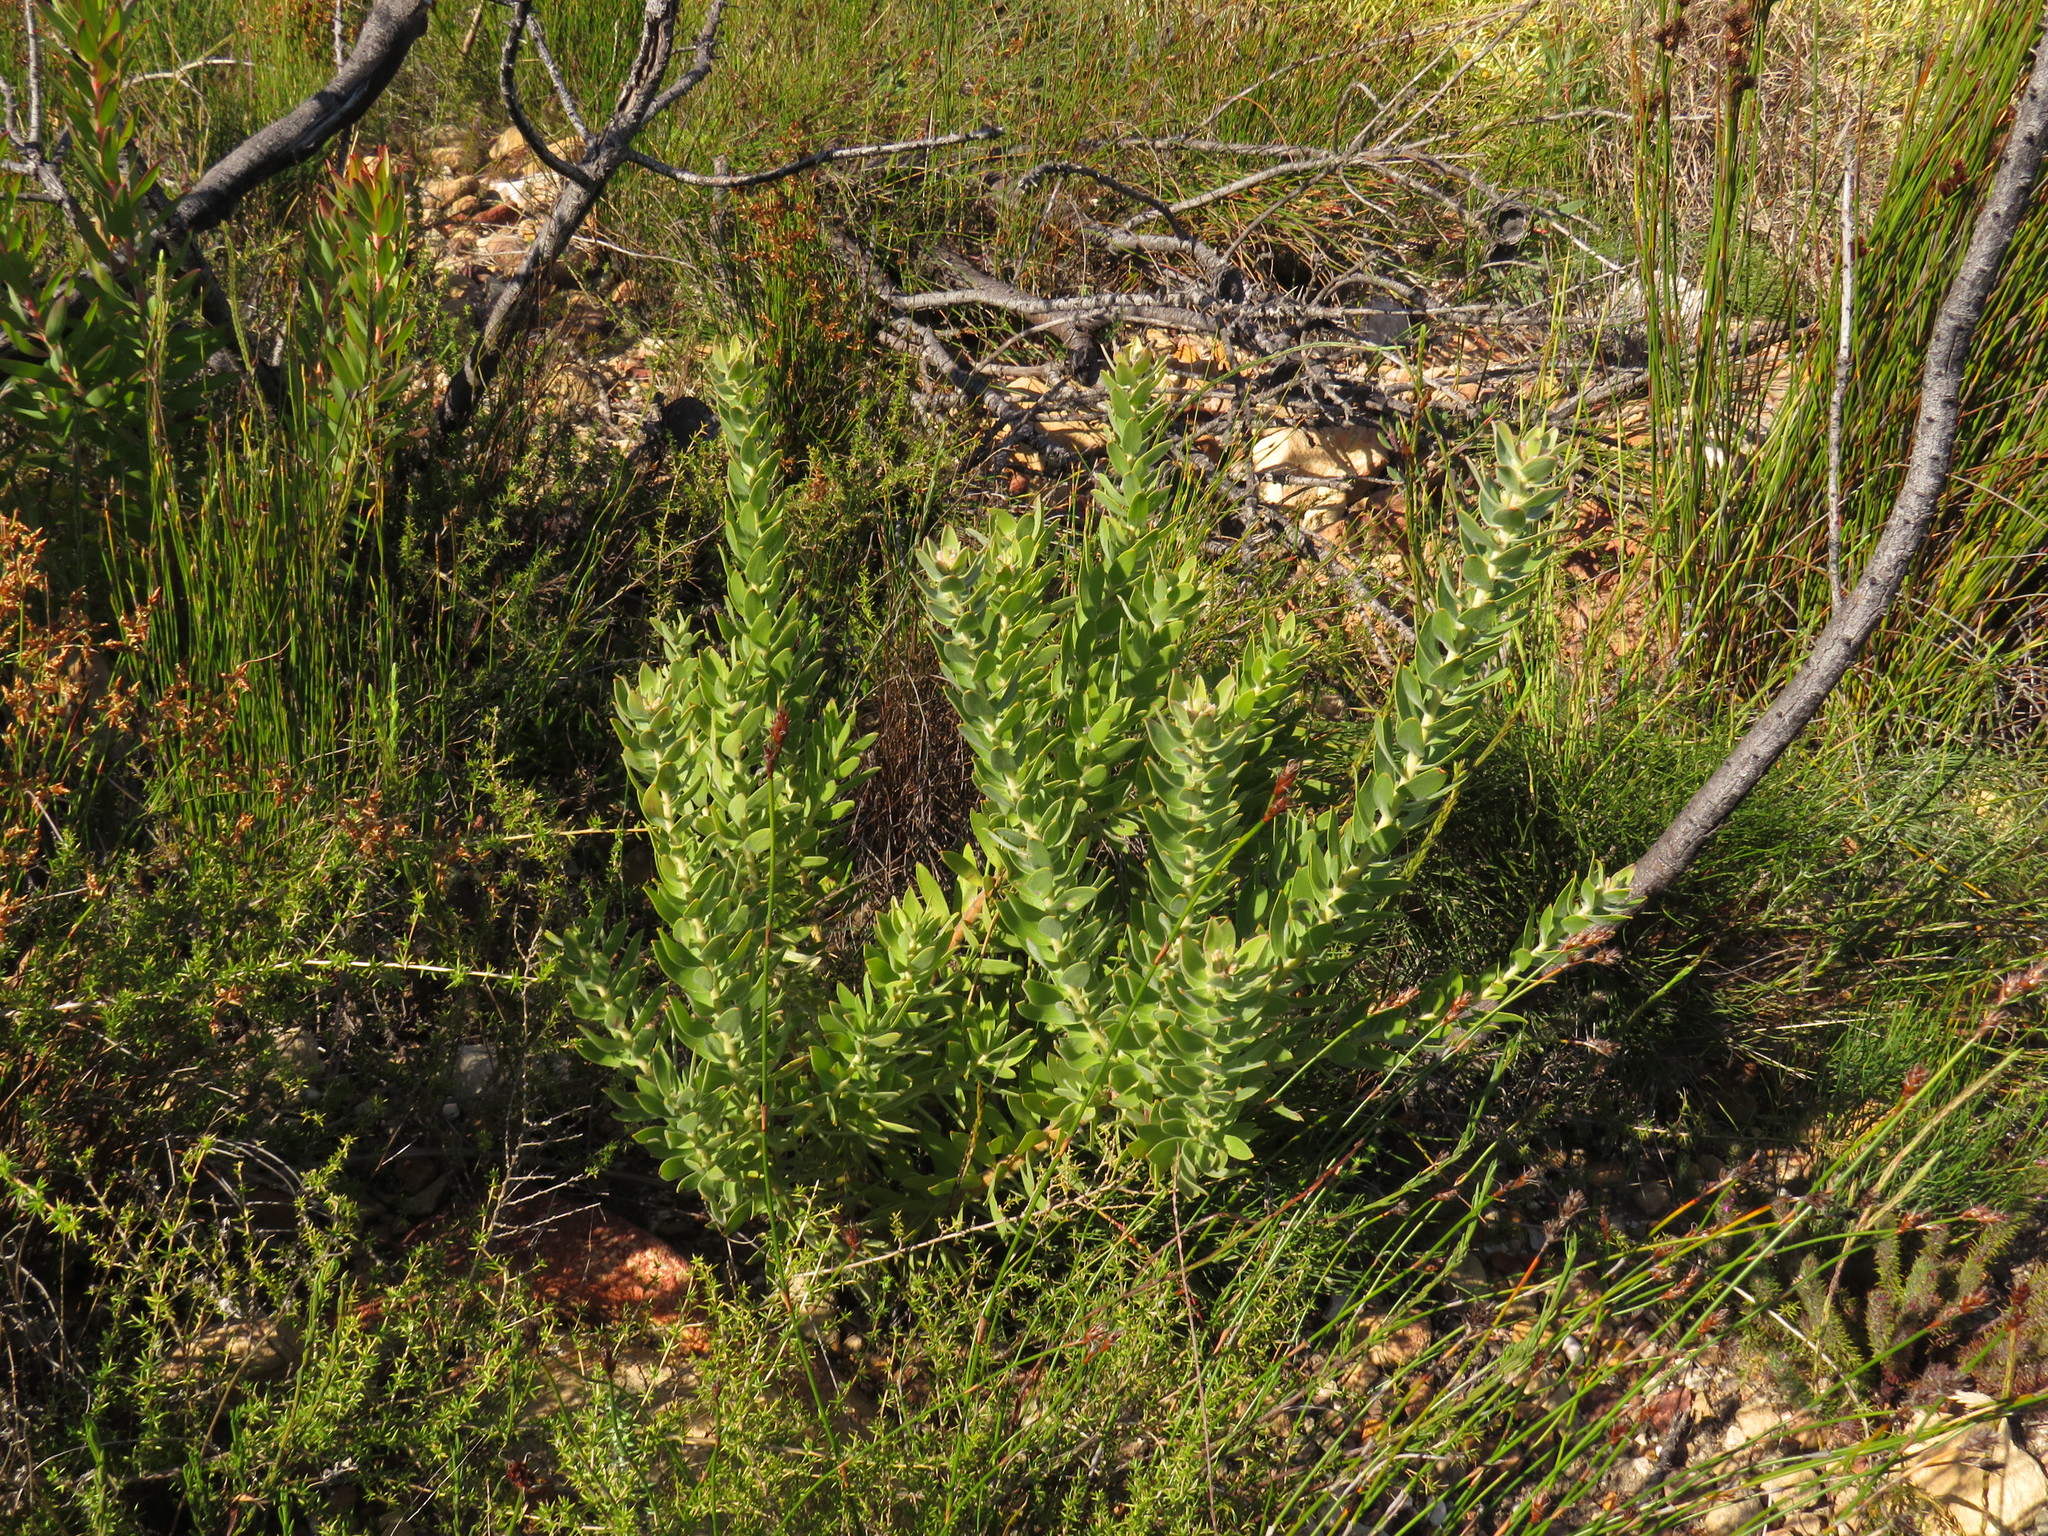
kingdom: Plantae
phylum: Tracheophyta
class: Magnoliopsida
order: Proteales
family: Proteaceae
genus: Leucospermum
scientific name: Leucospermum bolusii
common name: Gordon's bay pincushion
